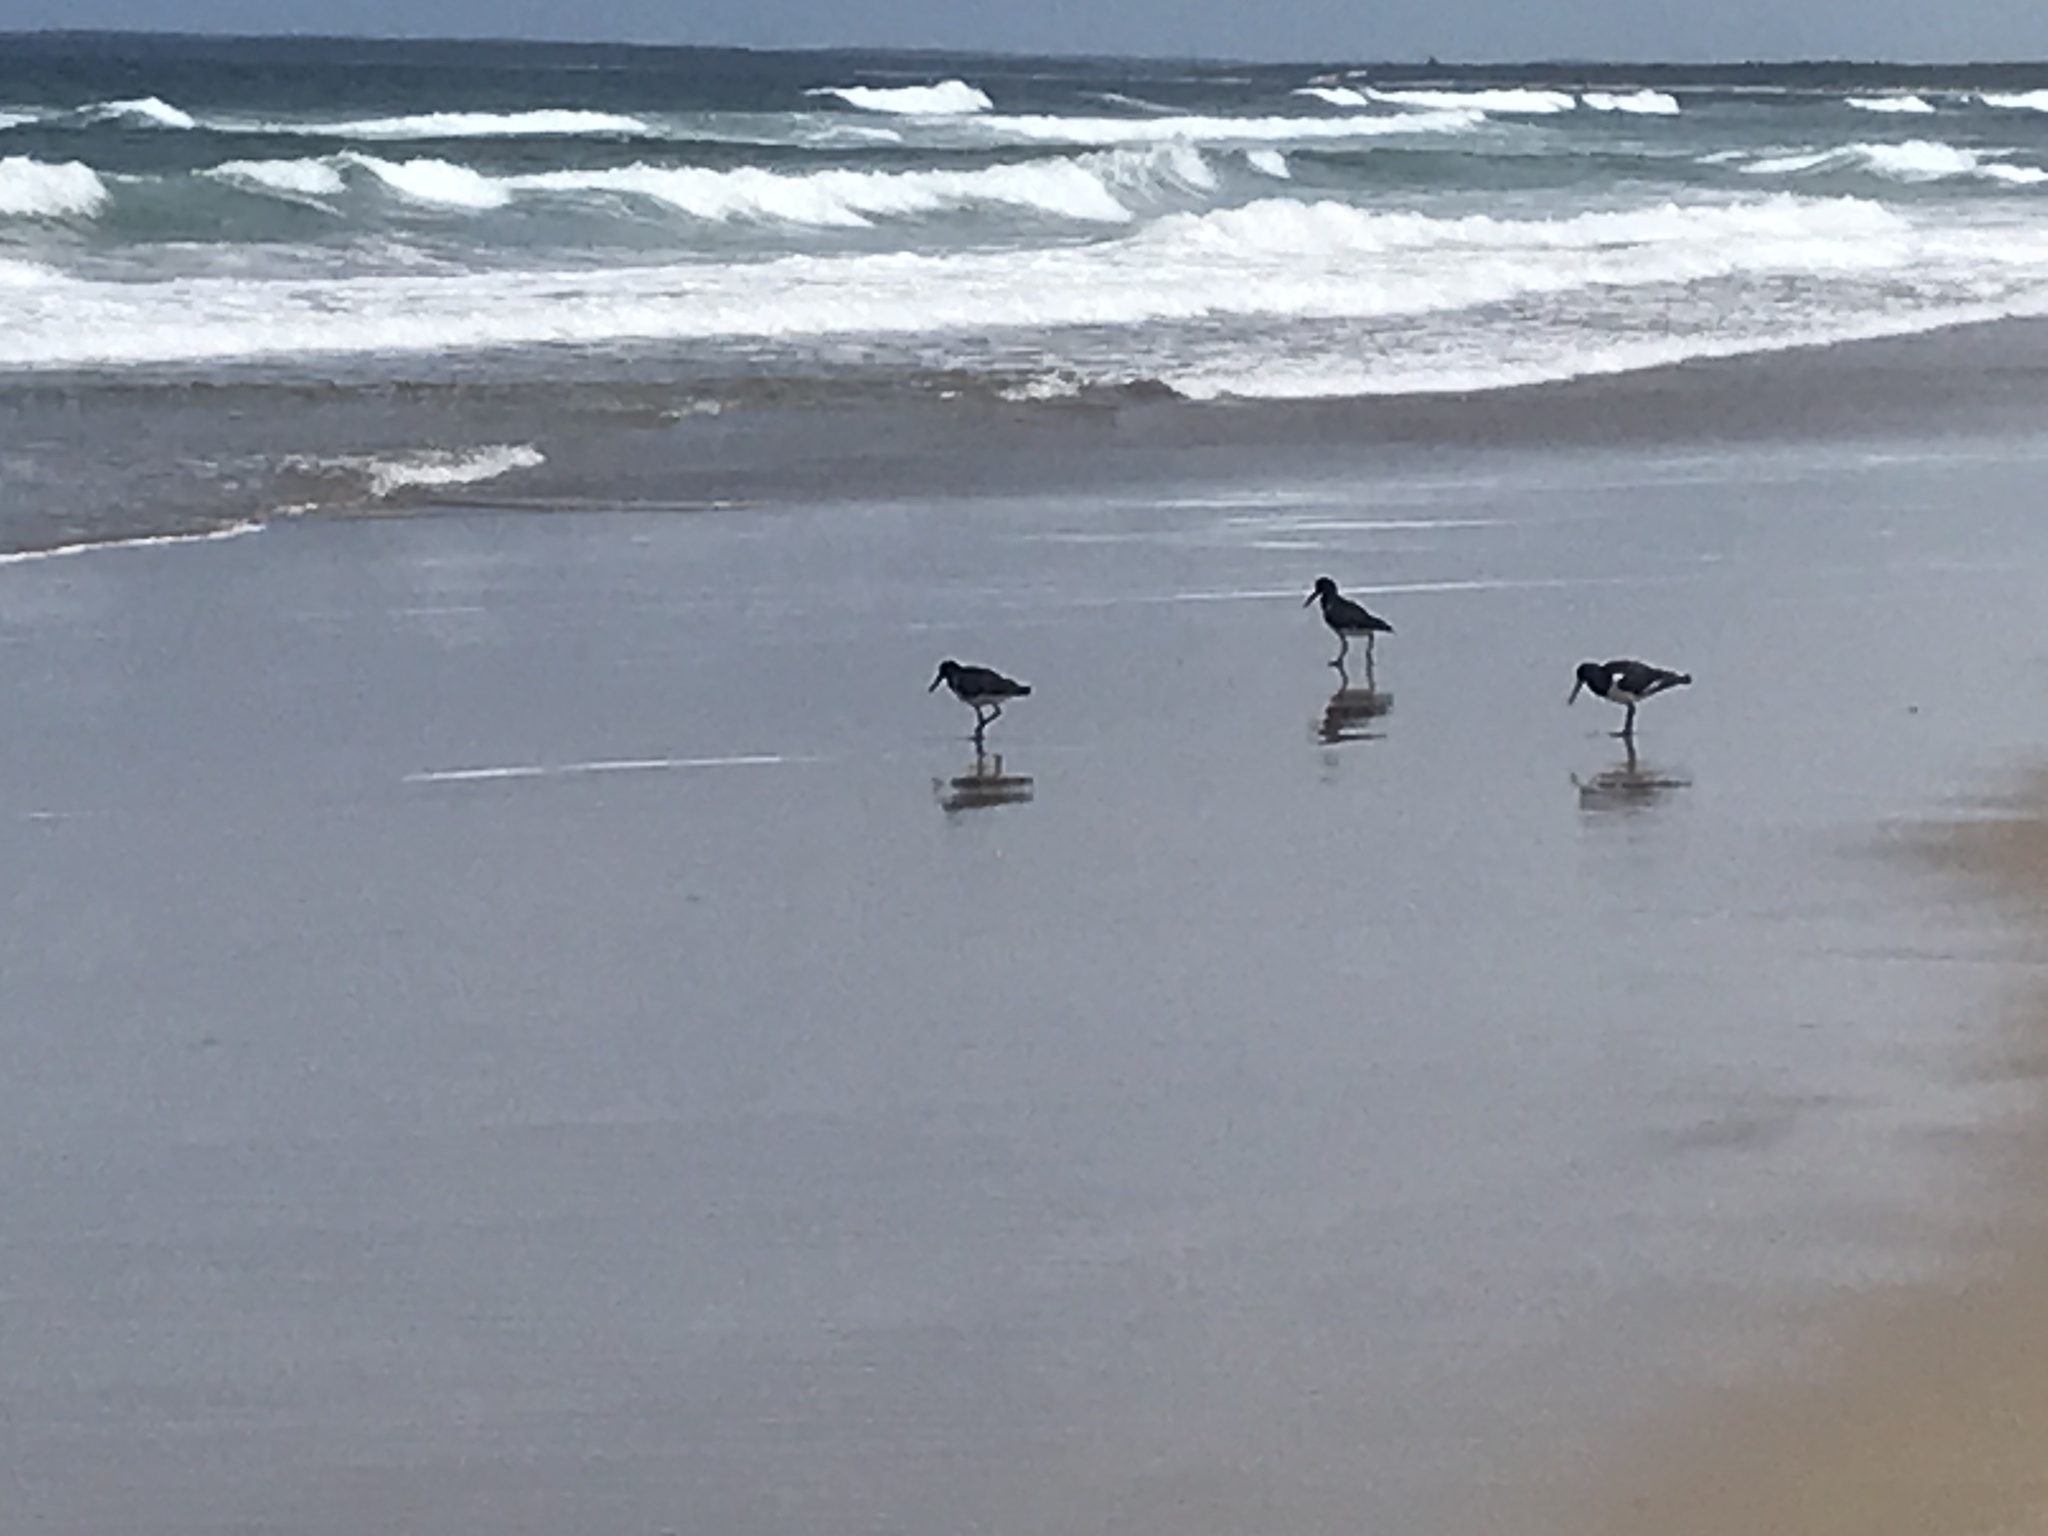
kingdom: Animalia
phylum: Chordata
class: Aves
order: Charadriiformes
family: Haematopodidae
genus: Haematopus
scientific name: Haematopus longirostris
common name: Pied oystercatcher
